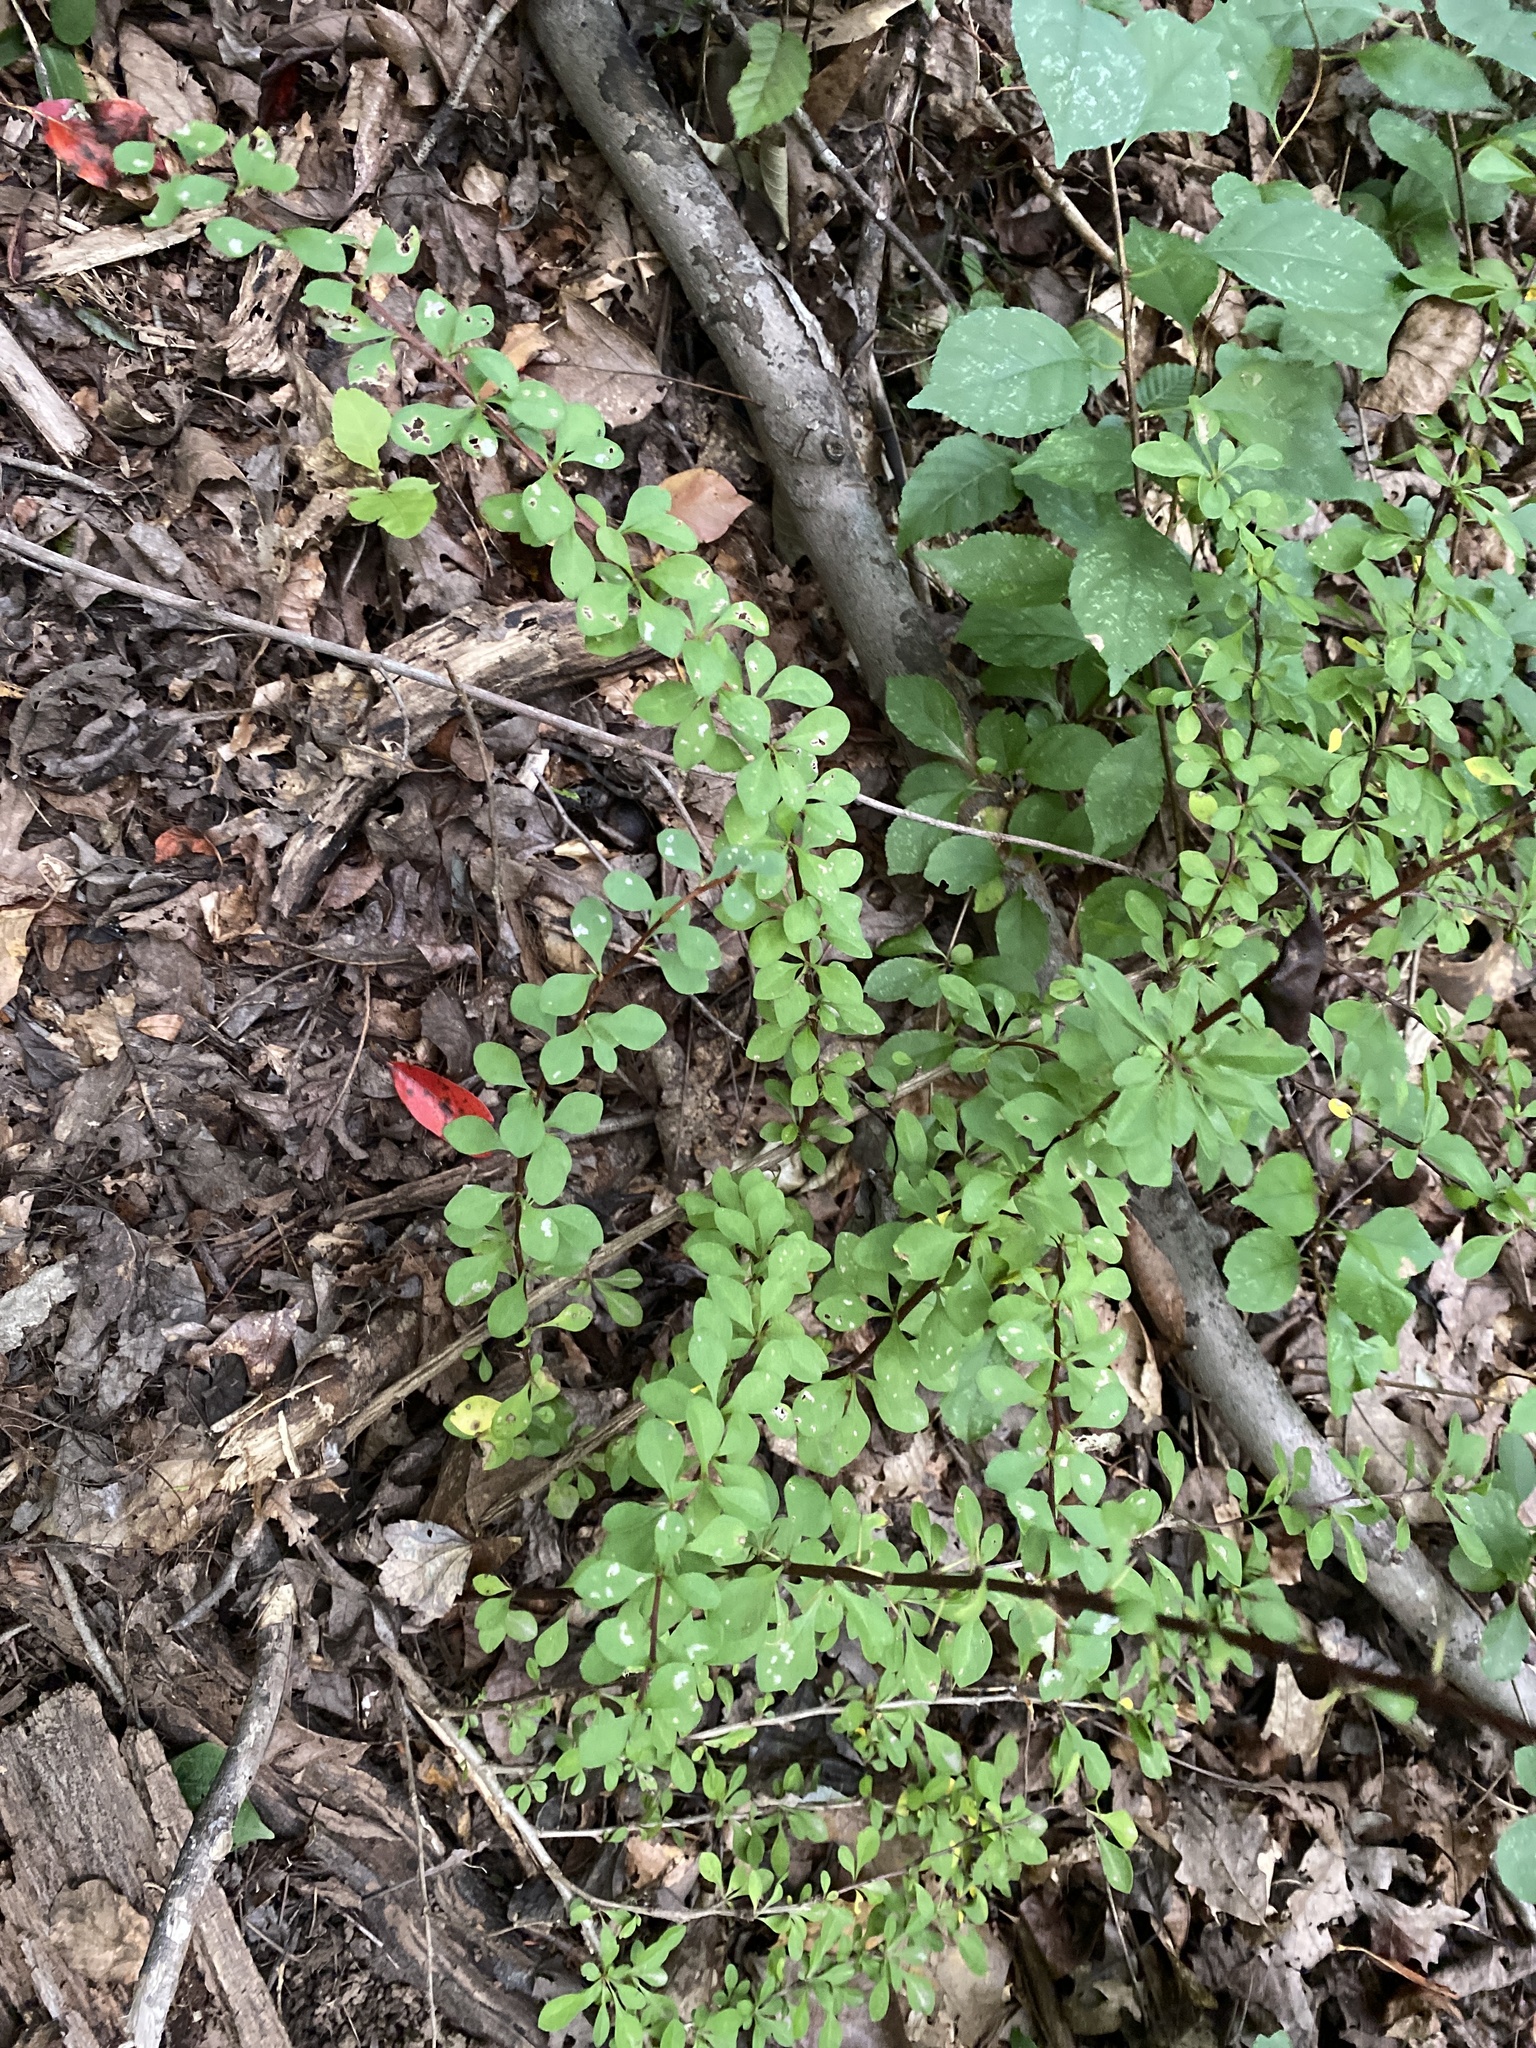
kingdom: Plantae
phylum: Tracheophyta
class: Magnoliopsida
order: Ranunculales
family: Berberidaceae
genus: Berberis
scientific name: Berberis thunbergii
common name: Japanese barberry
